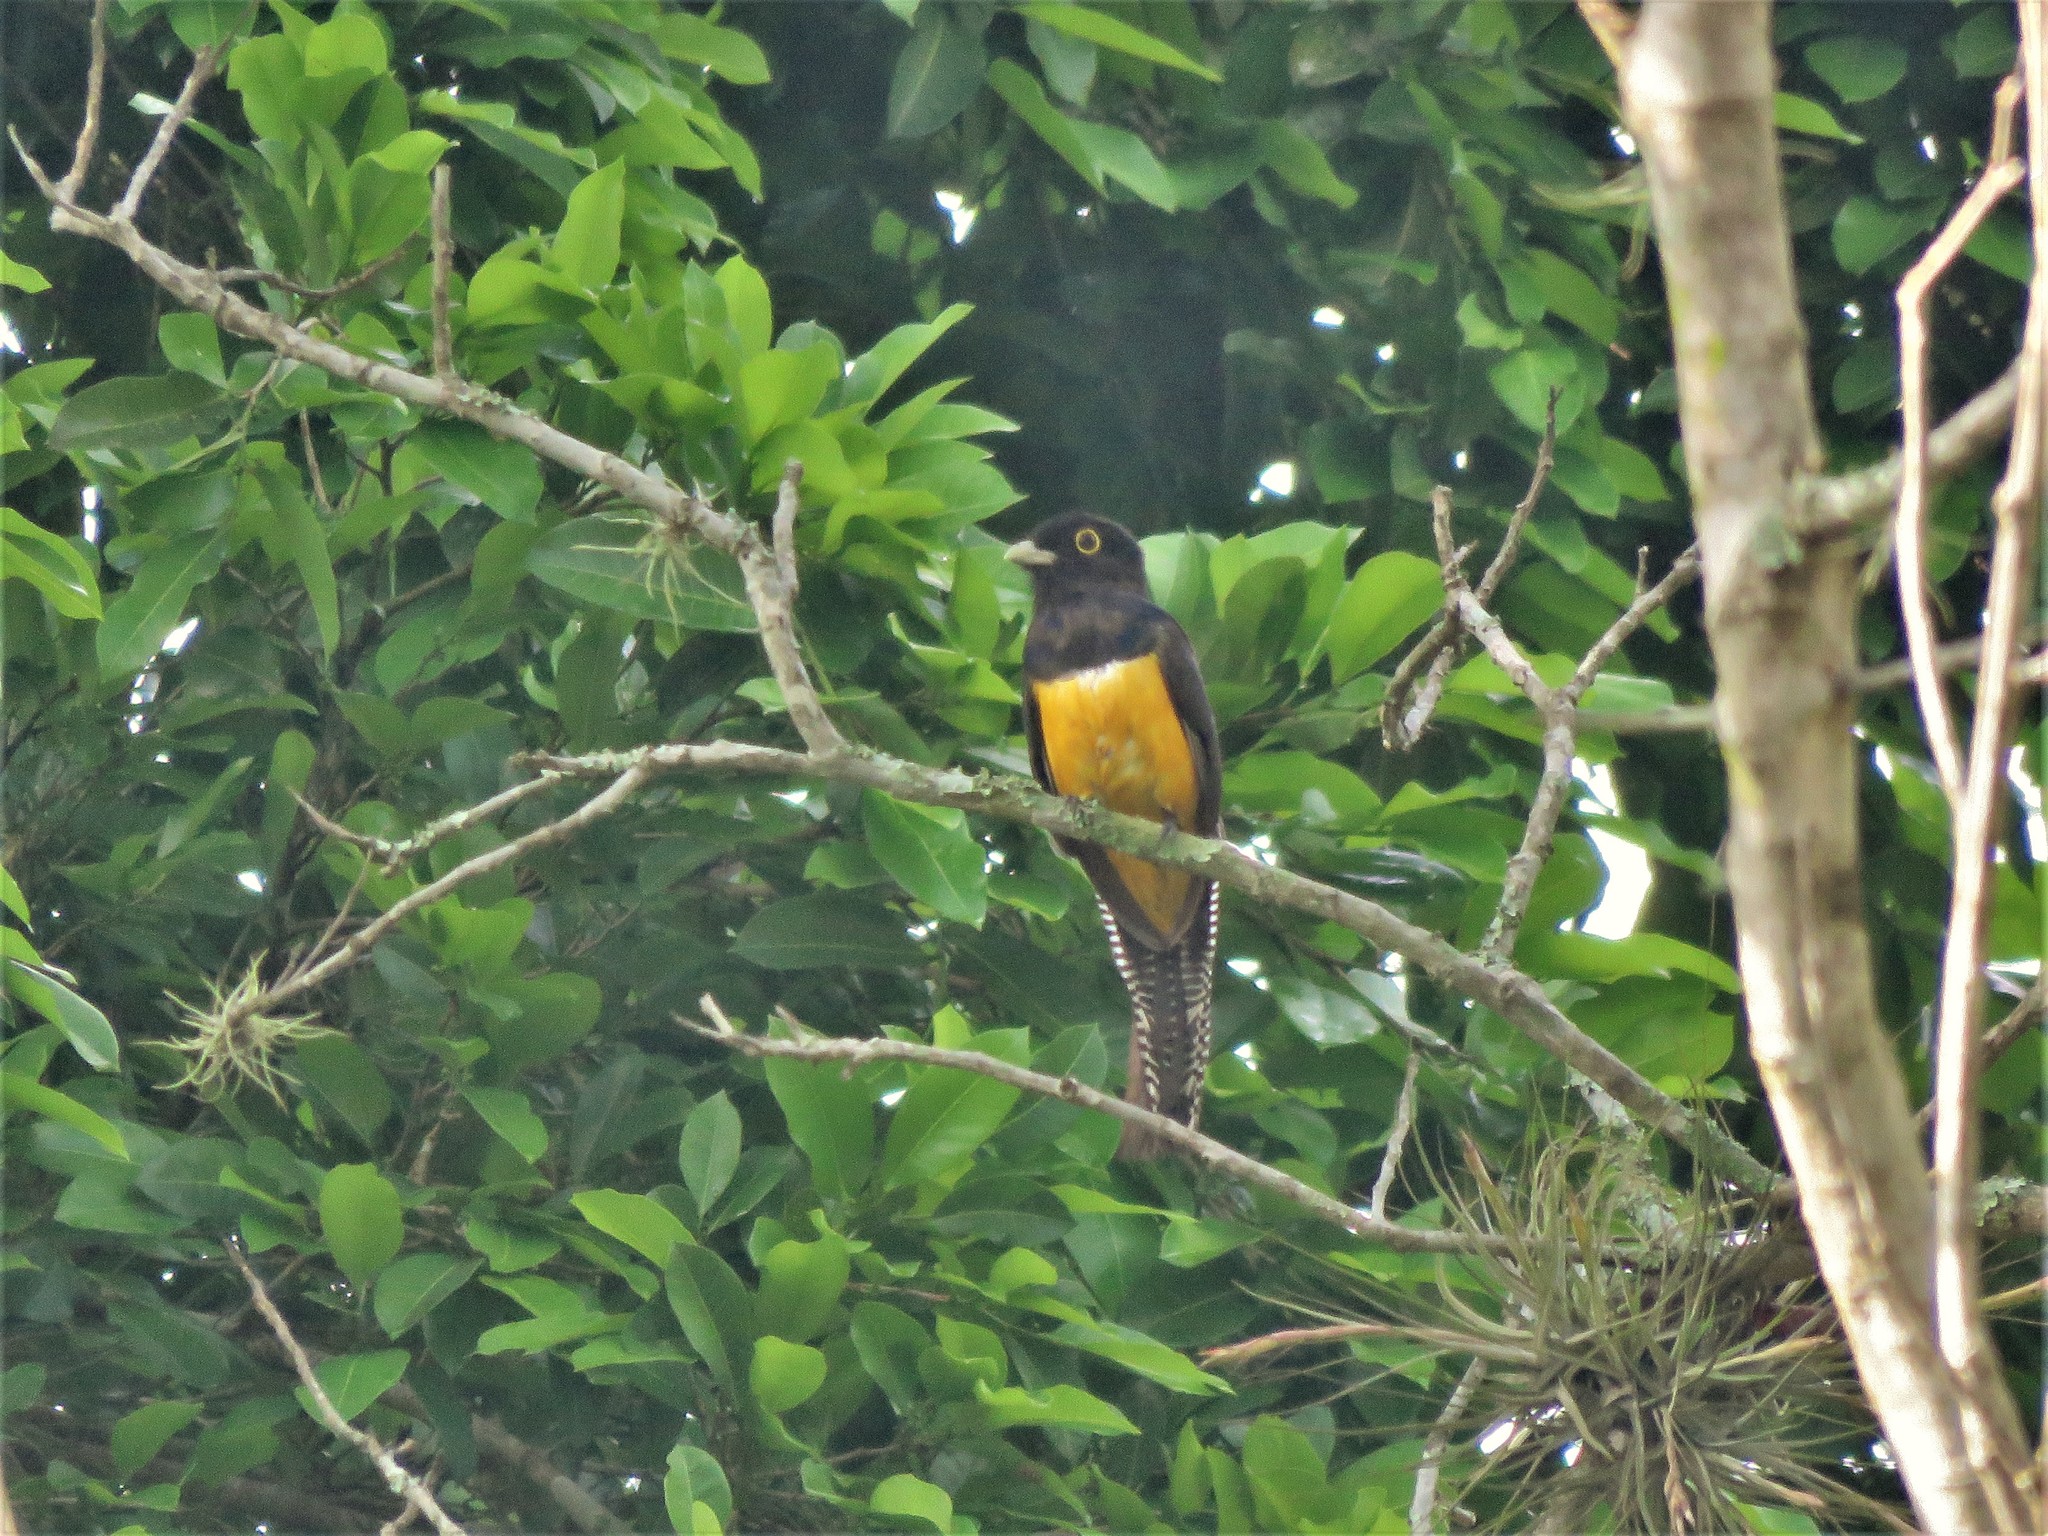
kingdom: Animalia
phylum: Chordata
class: Aves
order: Trogoniformes
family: Trogonidae
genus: Trogon
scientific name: Trogon caligatus
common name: Gartered trogon
